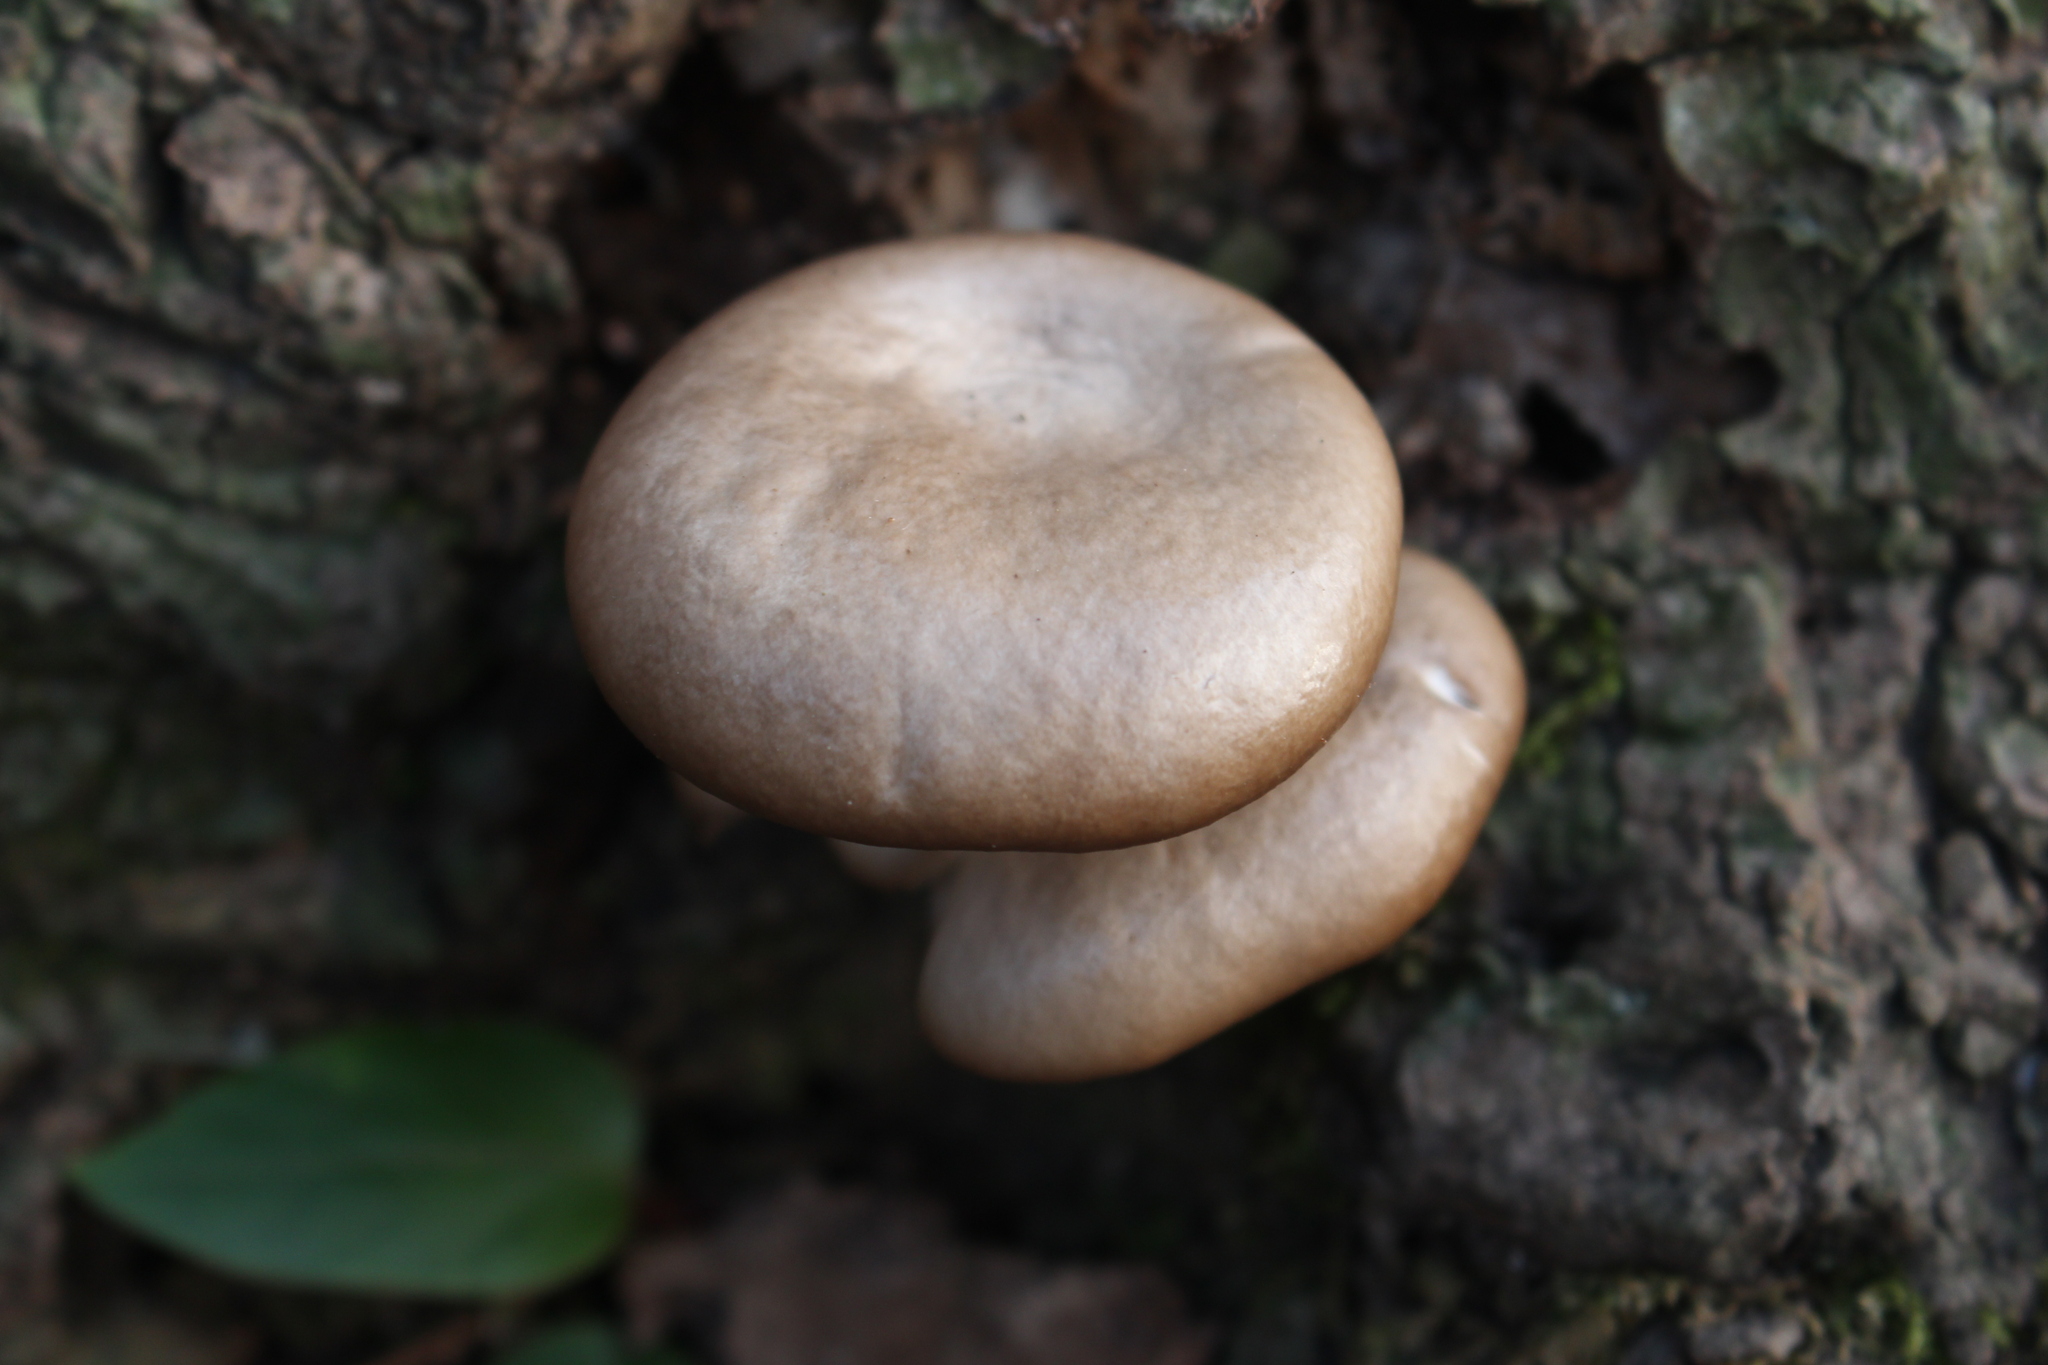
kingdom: Fungi
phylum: Basidiomycota
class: Agaricomycetes
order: Agaricales
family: Pleurotaceae
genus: Pleurotus
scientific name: Pleurotus ostreatus
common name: Oyster mushroom
